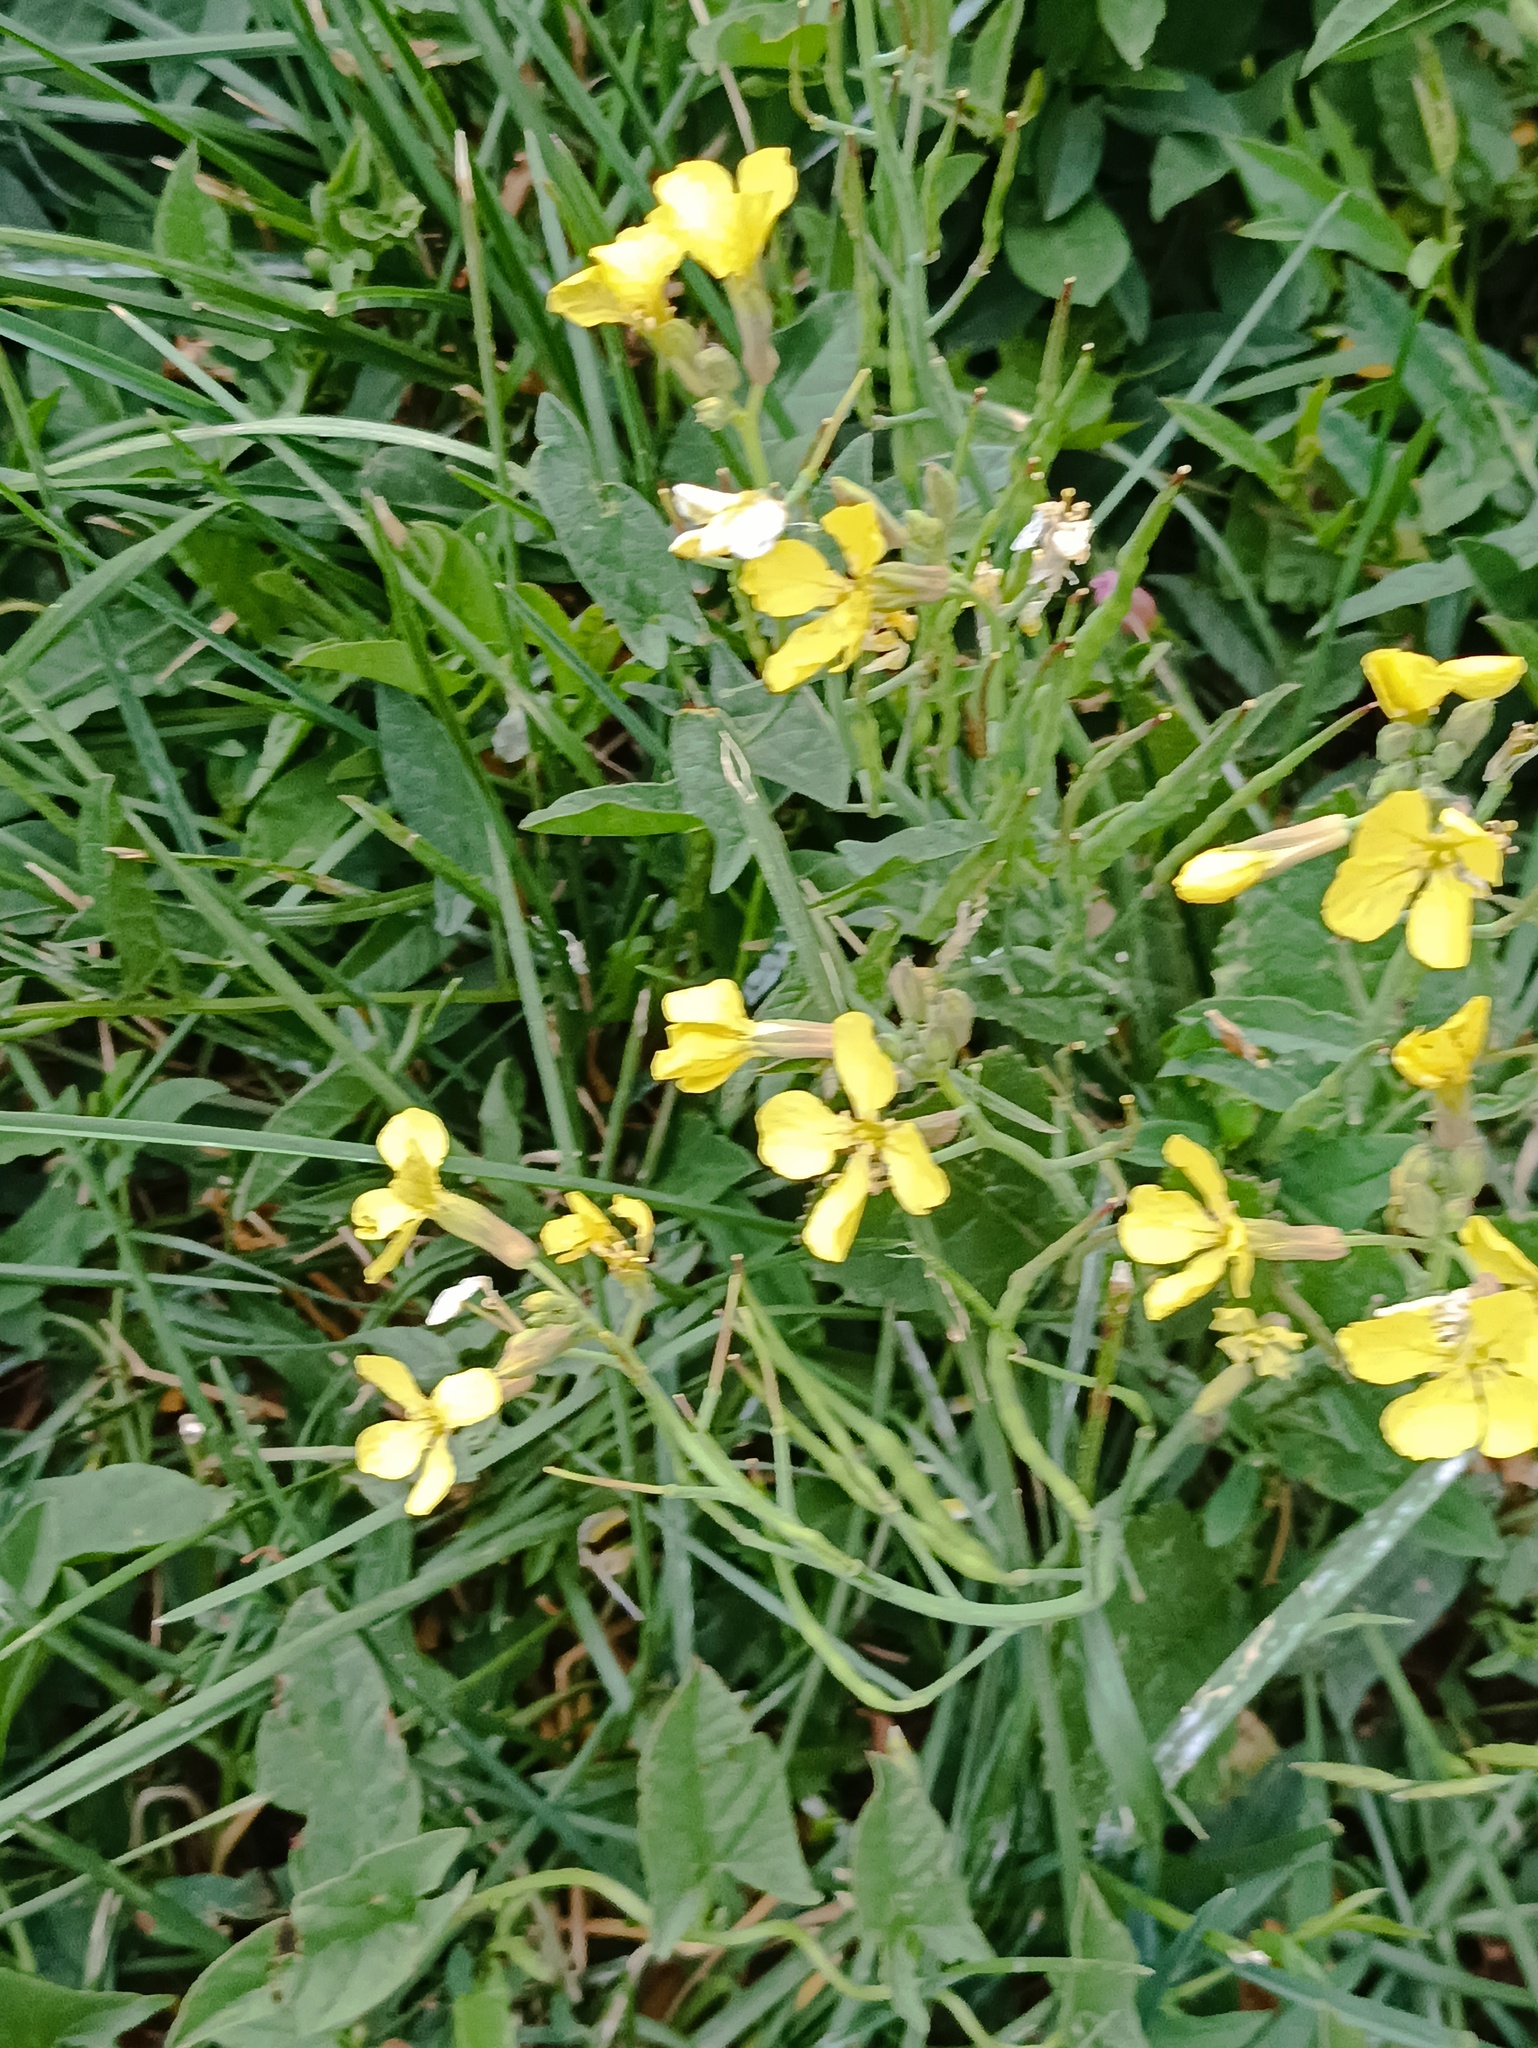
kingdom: Plantae
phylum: Tracheophyta
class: Magnoliopsida
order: Brassicales
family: Brassicaceae
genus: Raphanus
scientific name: Raphanus raphanistrum
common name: Wild radish
